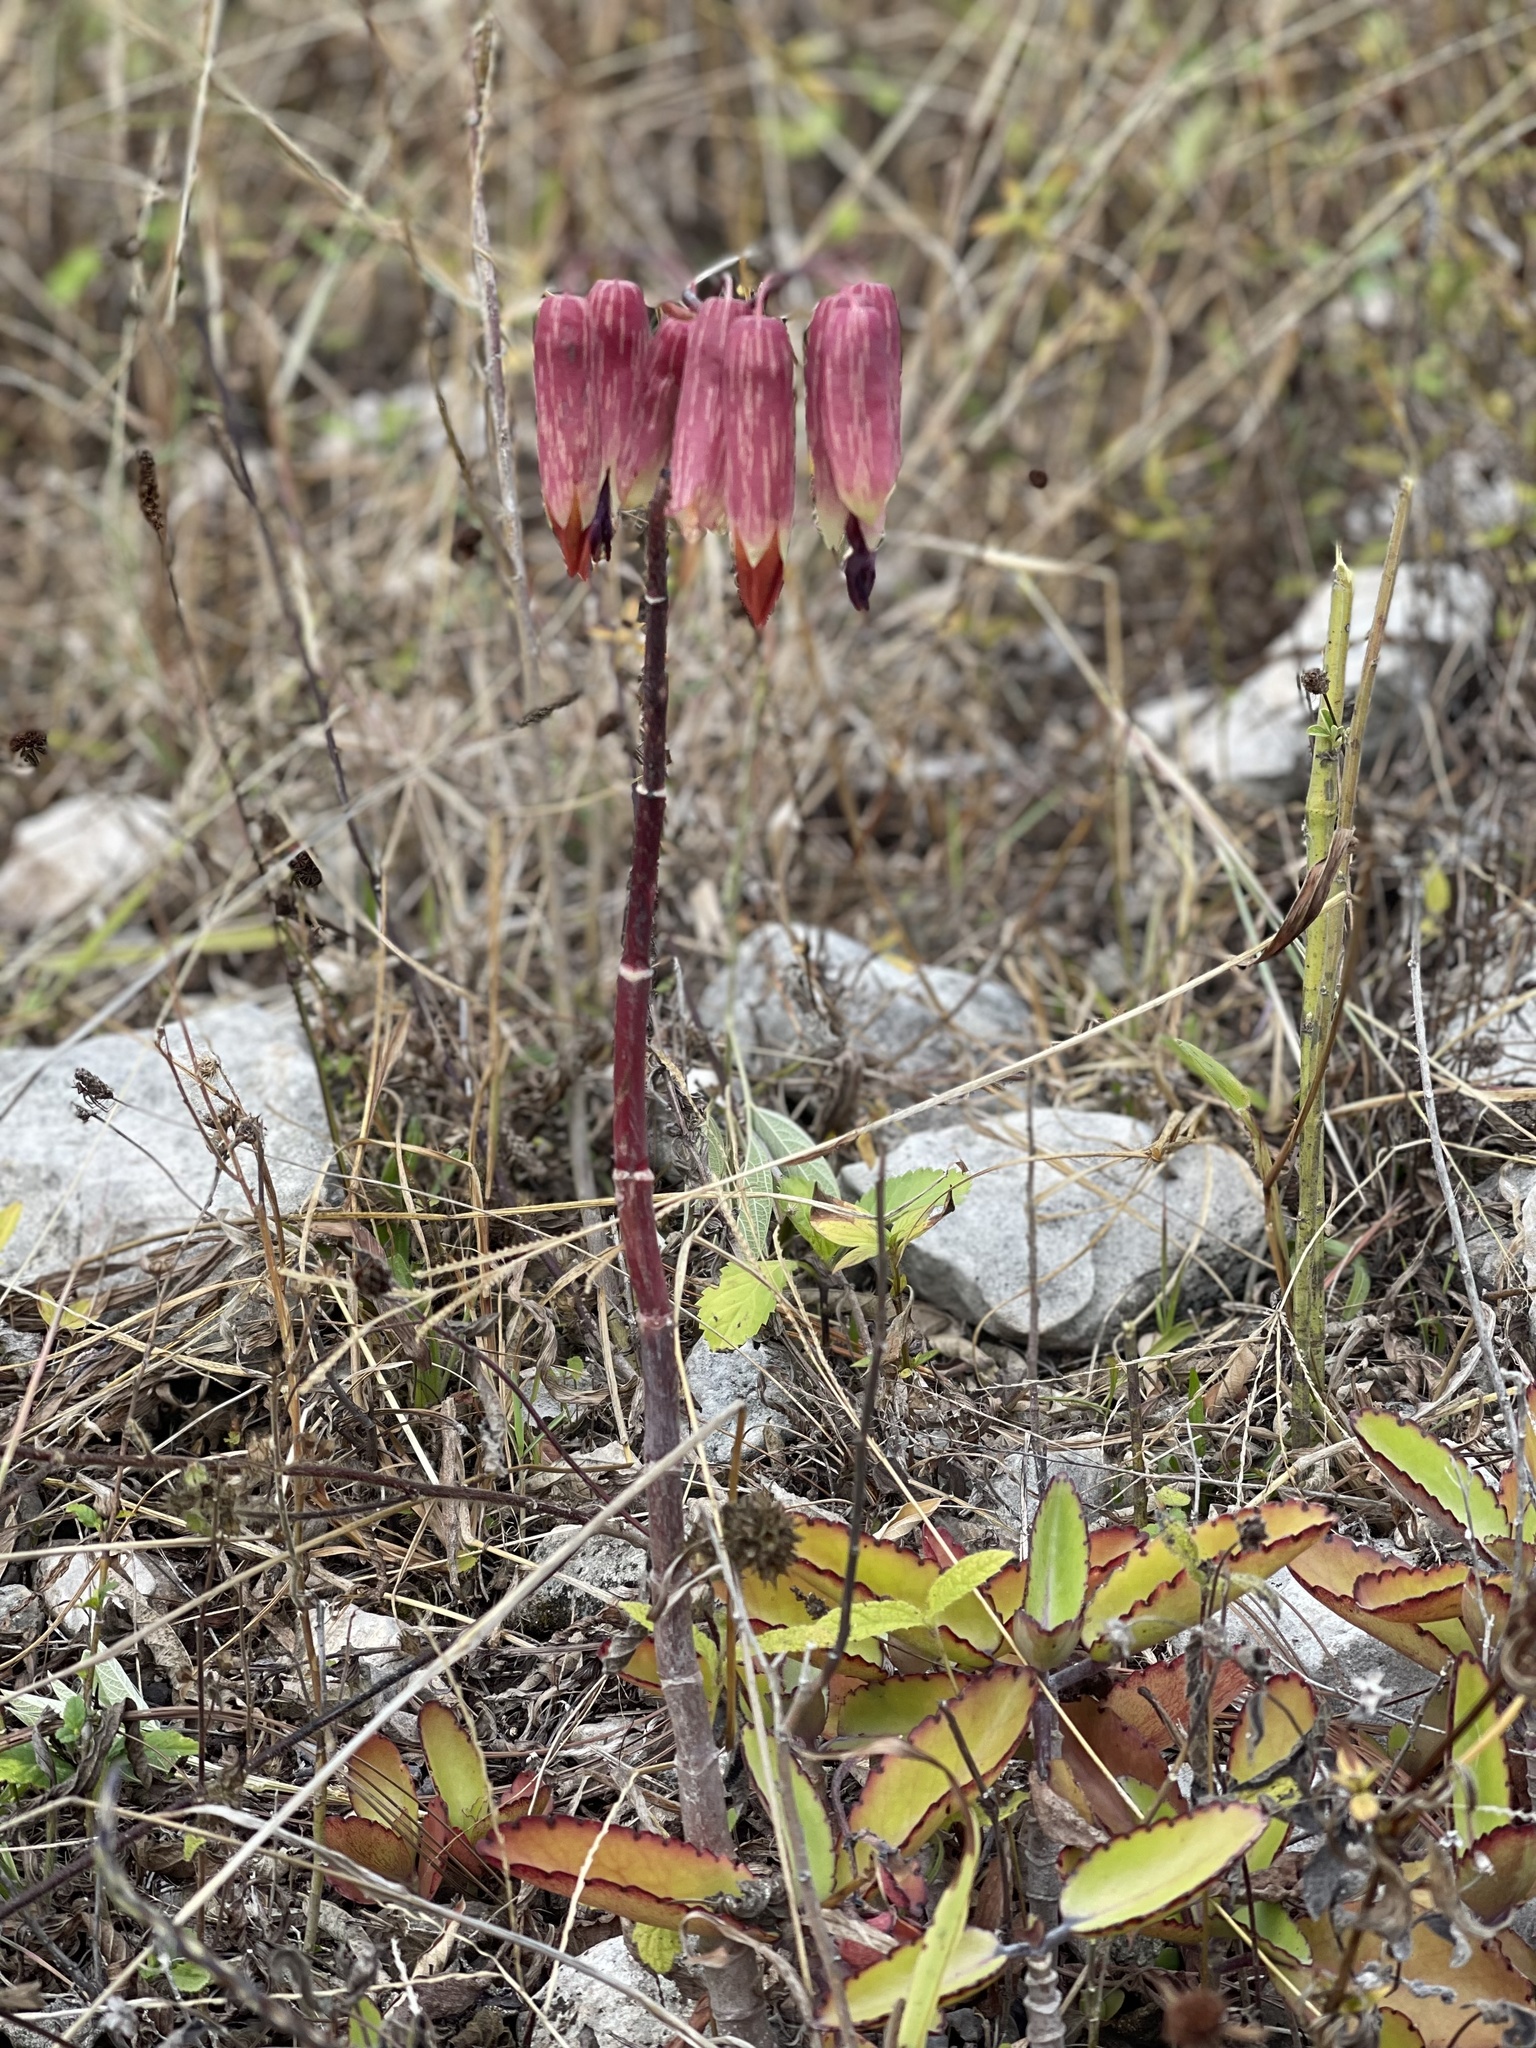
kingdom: Plantae
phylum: Tracheophyta
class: Magnoliopsida
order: Saxifragales
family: Crassulaceae
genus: Kalanchoe
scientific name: Kalanchoe pinnata
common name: Cathedral bells
